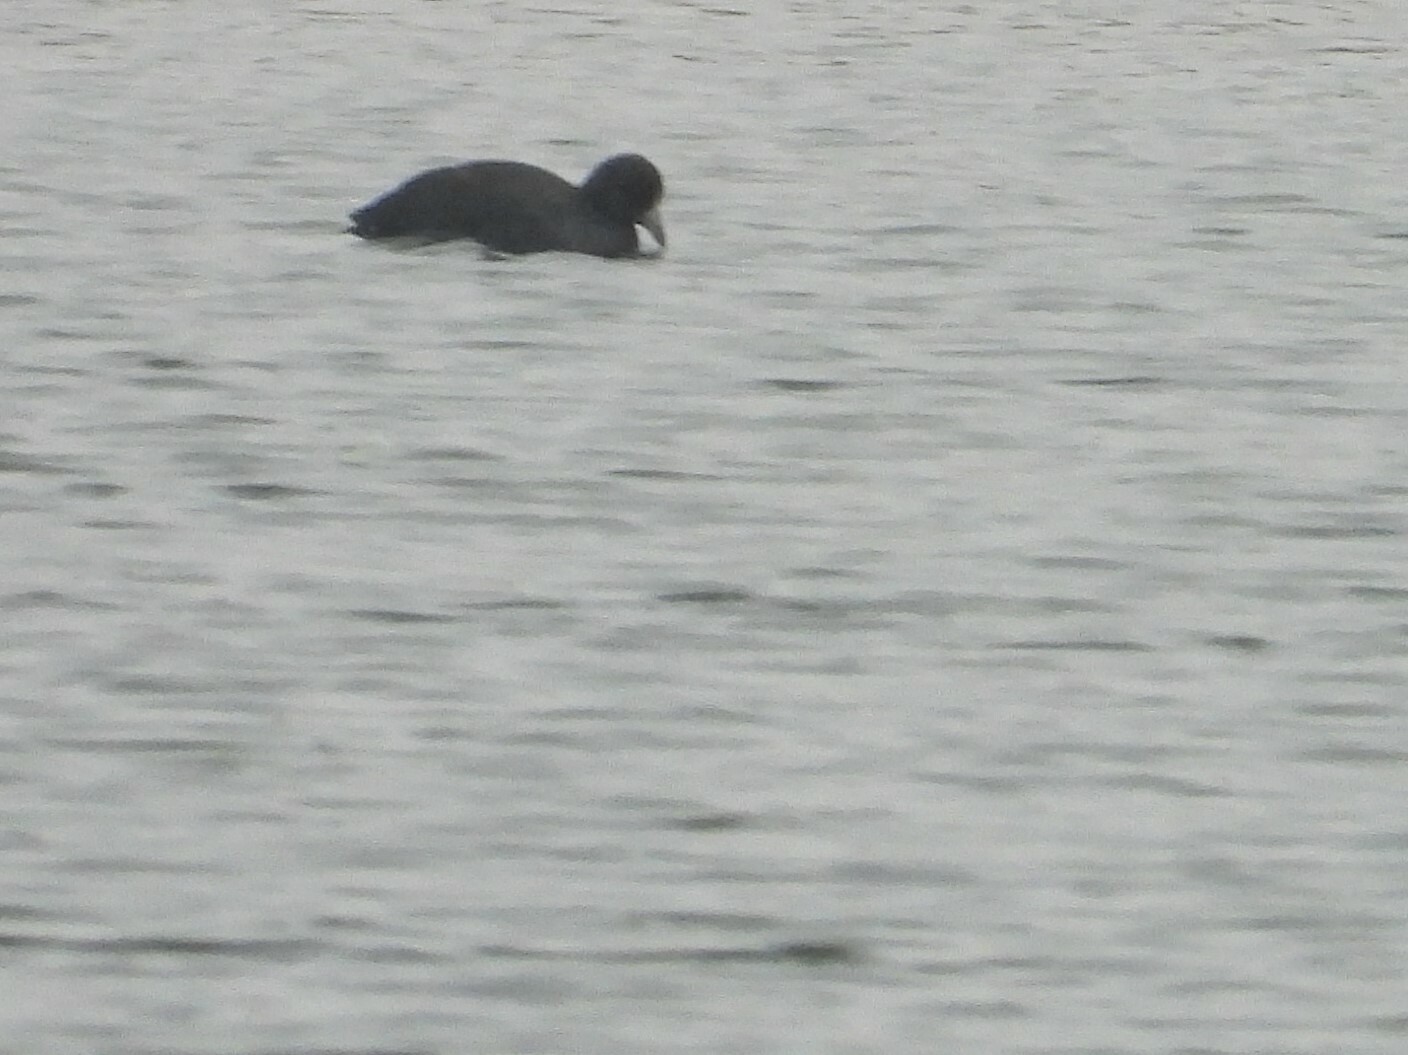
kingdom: Animalia
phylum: Chordata
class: Aves
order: Gruiformes
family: Rallidae
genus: Fulica
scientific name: Fulica americana
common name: American coot
